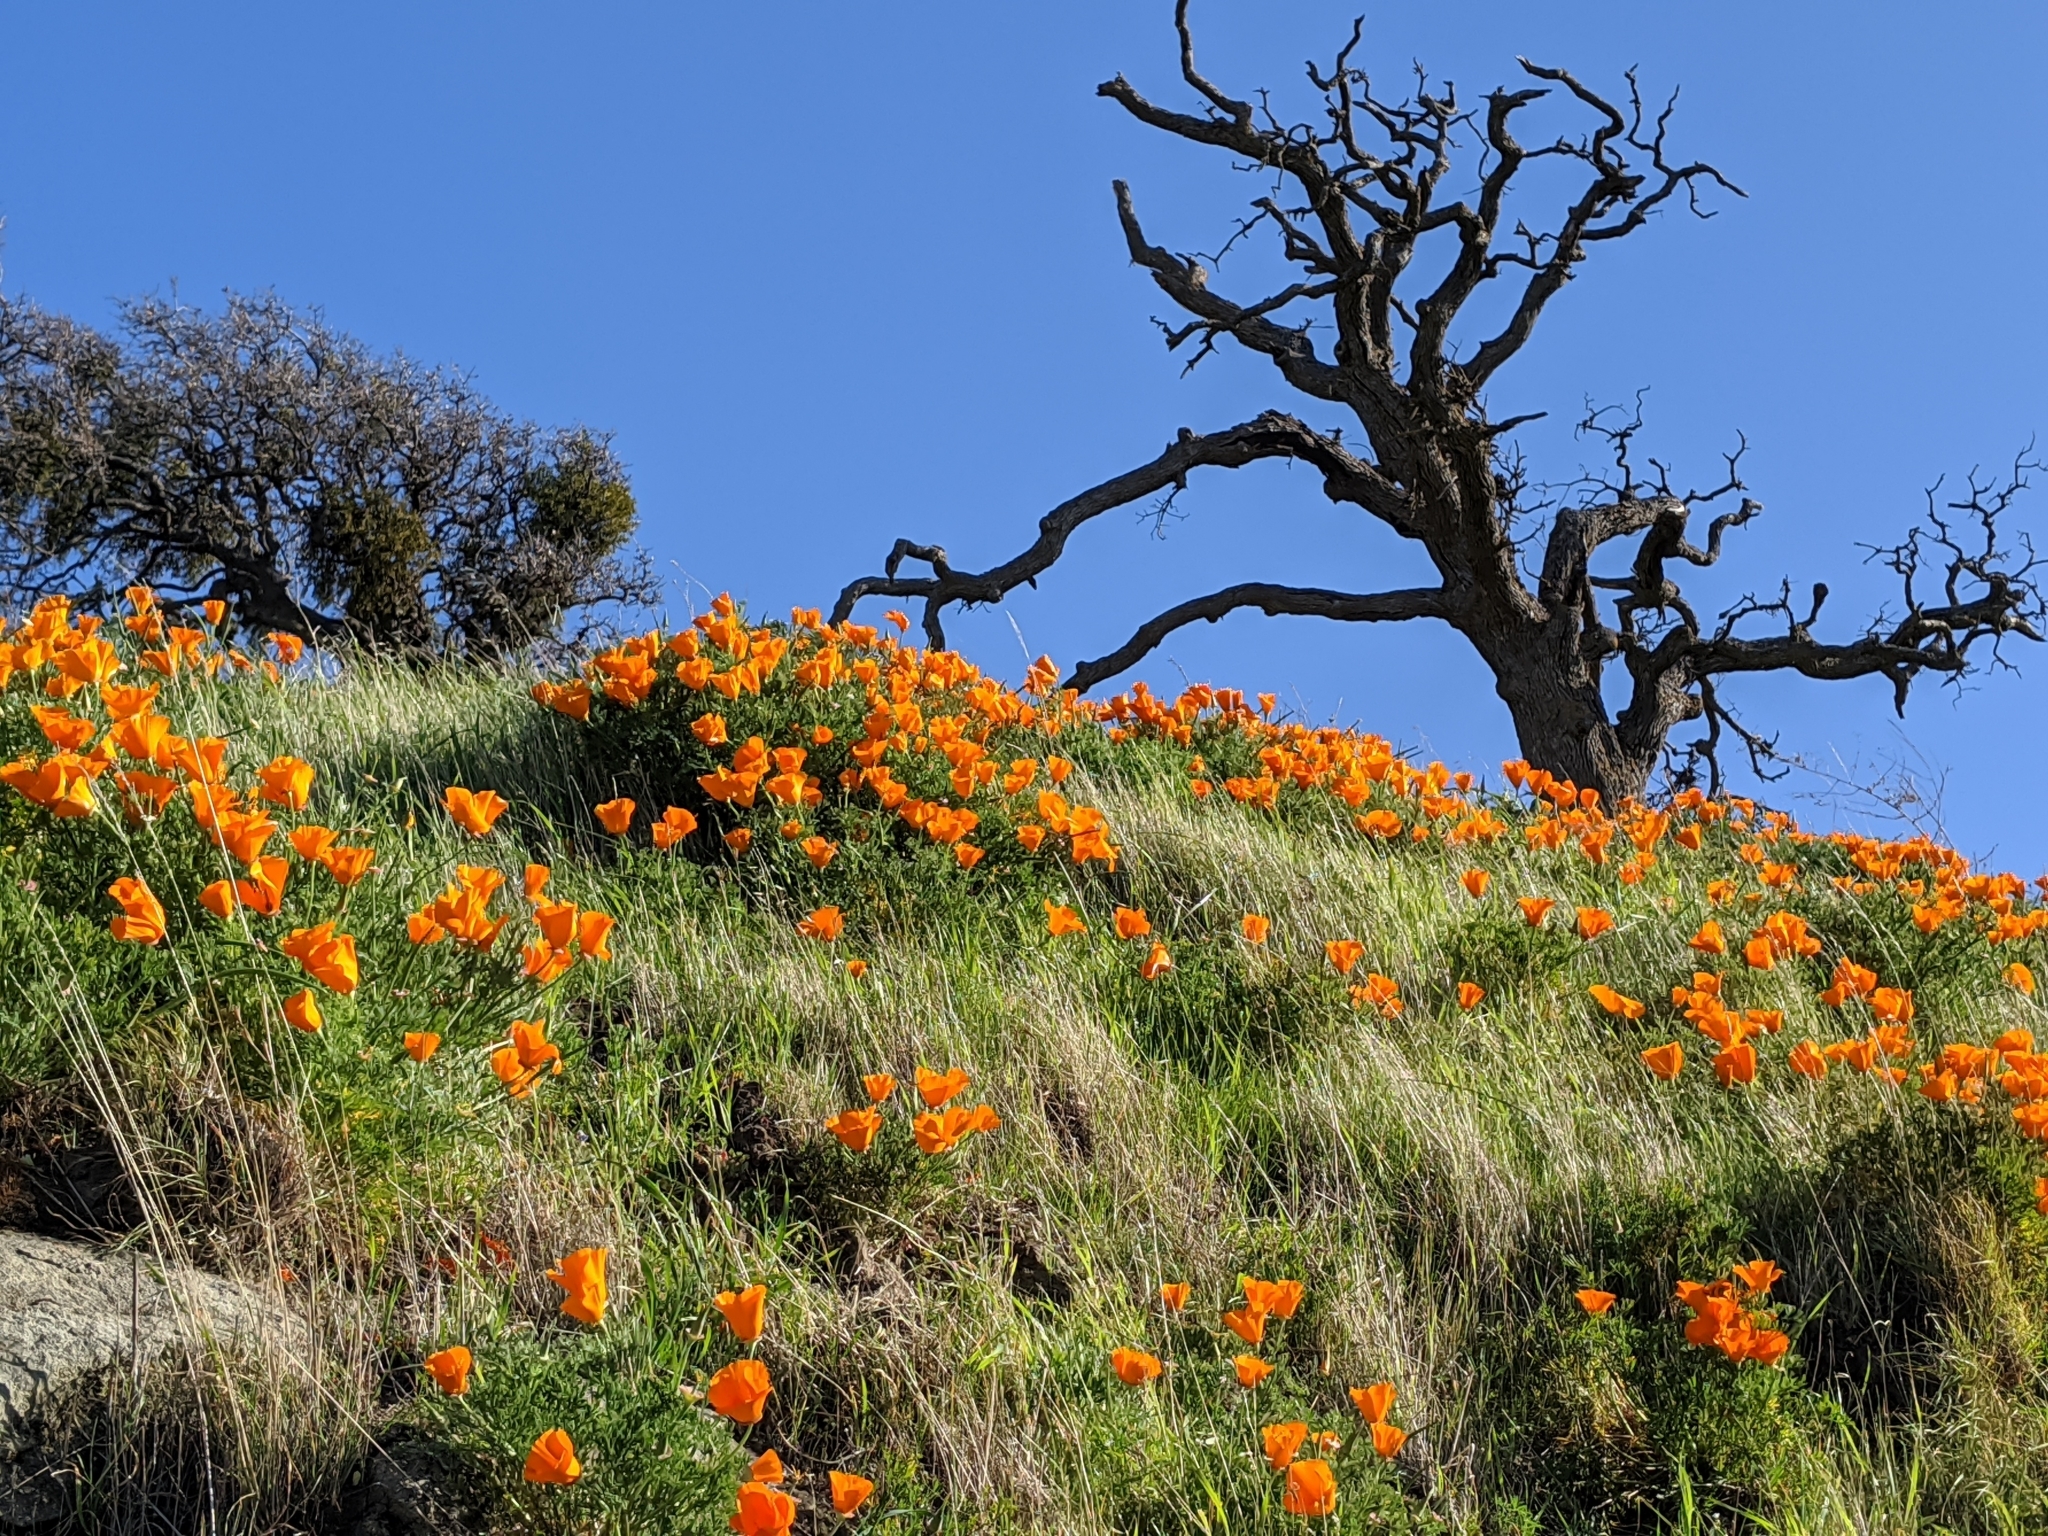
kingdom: Plantae
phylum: Tracheophyta
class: Magnoliopsida
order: Ranunculales
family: Papaveraceae
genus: Eschscholzia
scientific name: Eschscholzia californica
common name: California poppy
